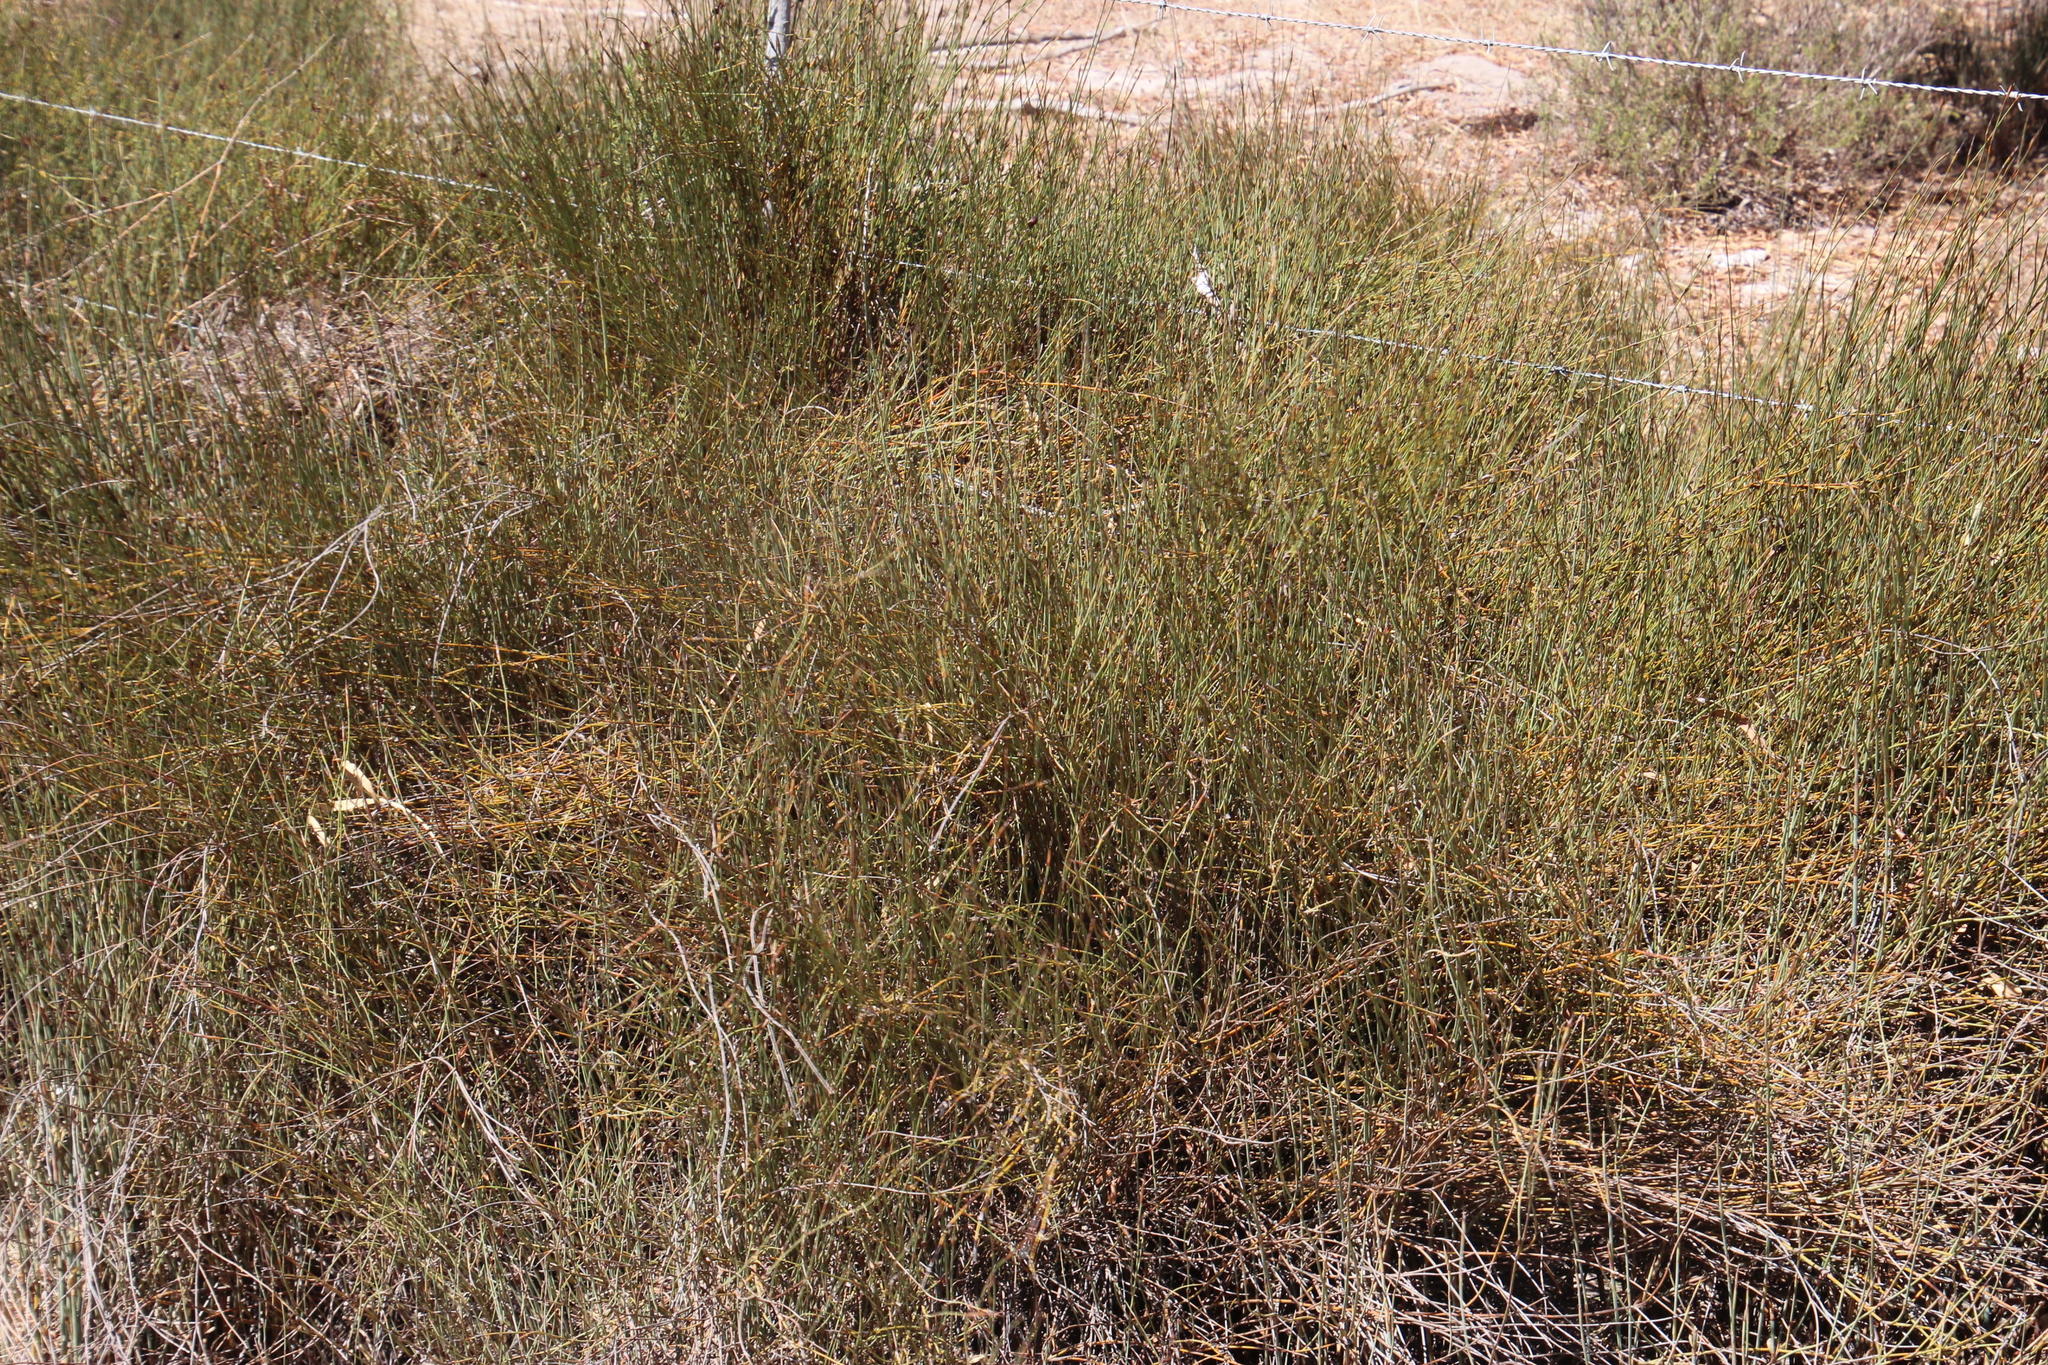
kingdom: Plantae
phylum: Tracheophyta
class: Liliopsida
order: Poales
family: Restionaceae
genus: Willdenowia
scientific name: Willdenowia incurvata
